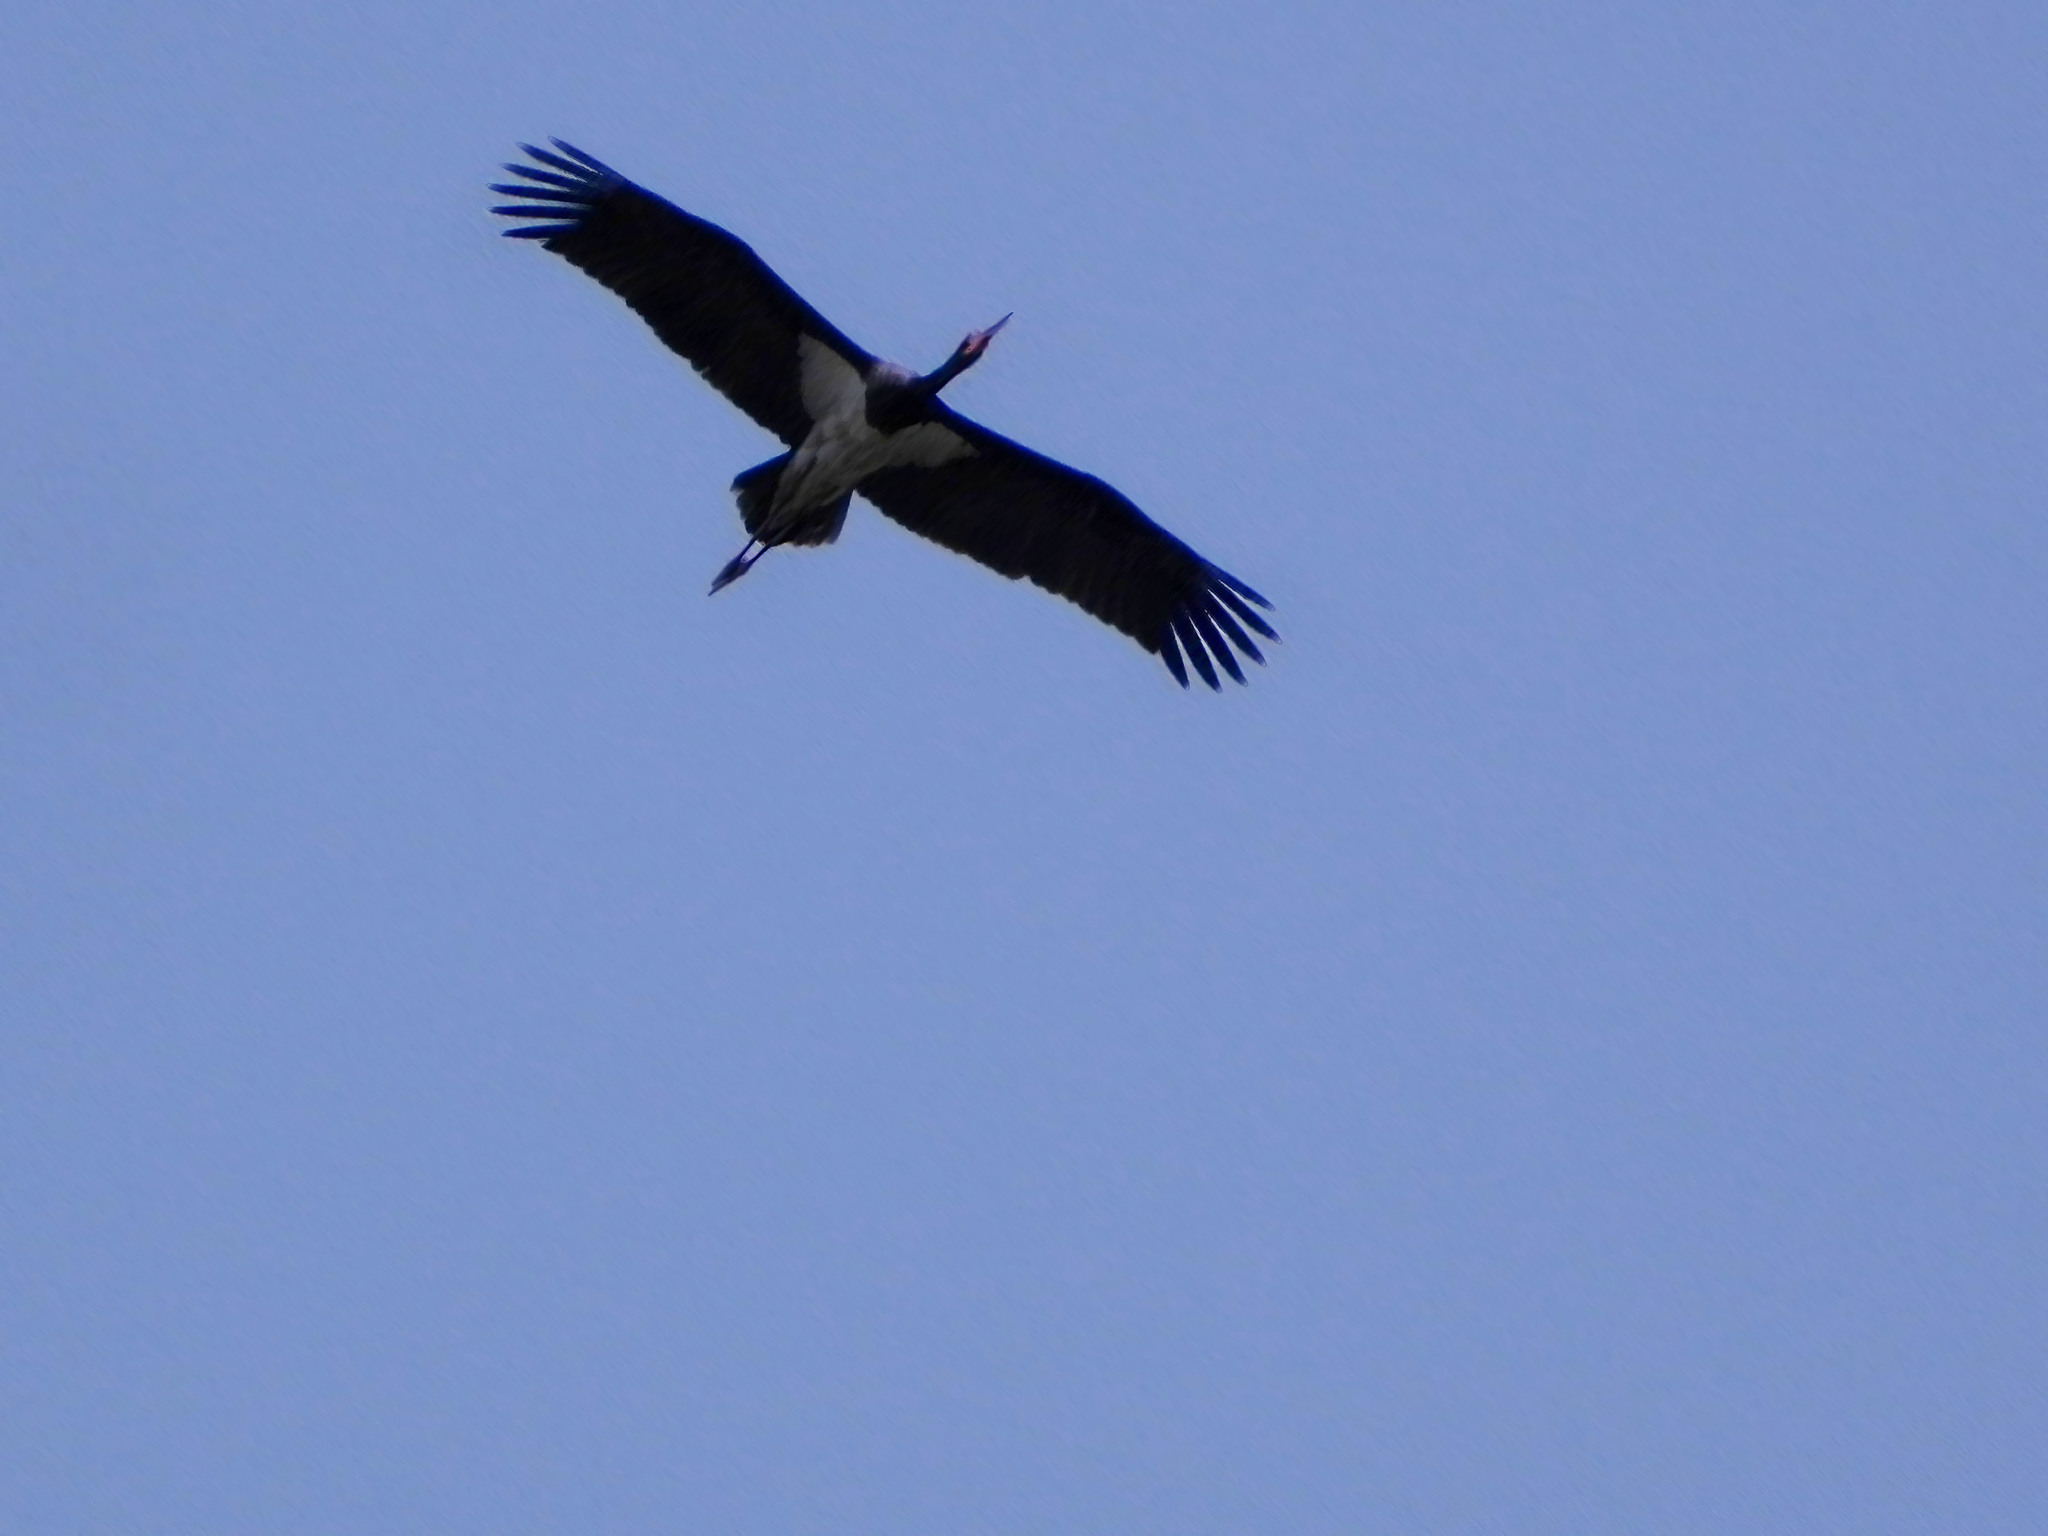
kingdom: Animalia
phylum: Chordata
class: Aves
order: Ciconiiformes
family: Ciconiidae
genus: Ciconia
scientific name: Ciconia nigra
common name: Black stork
